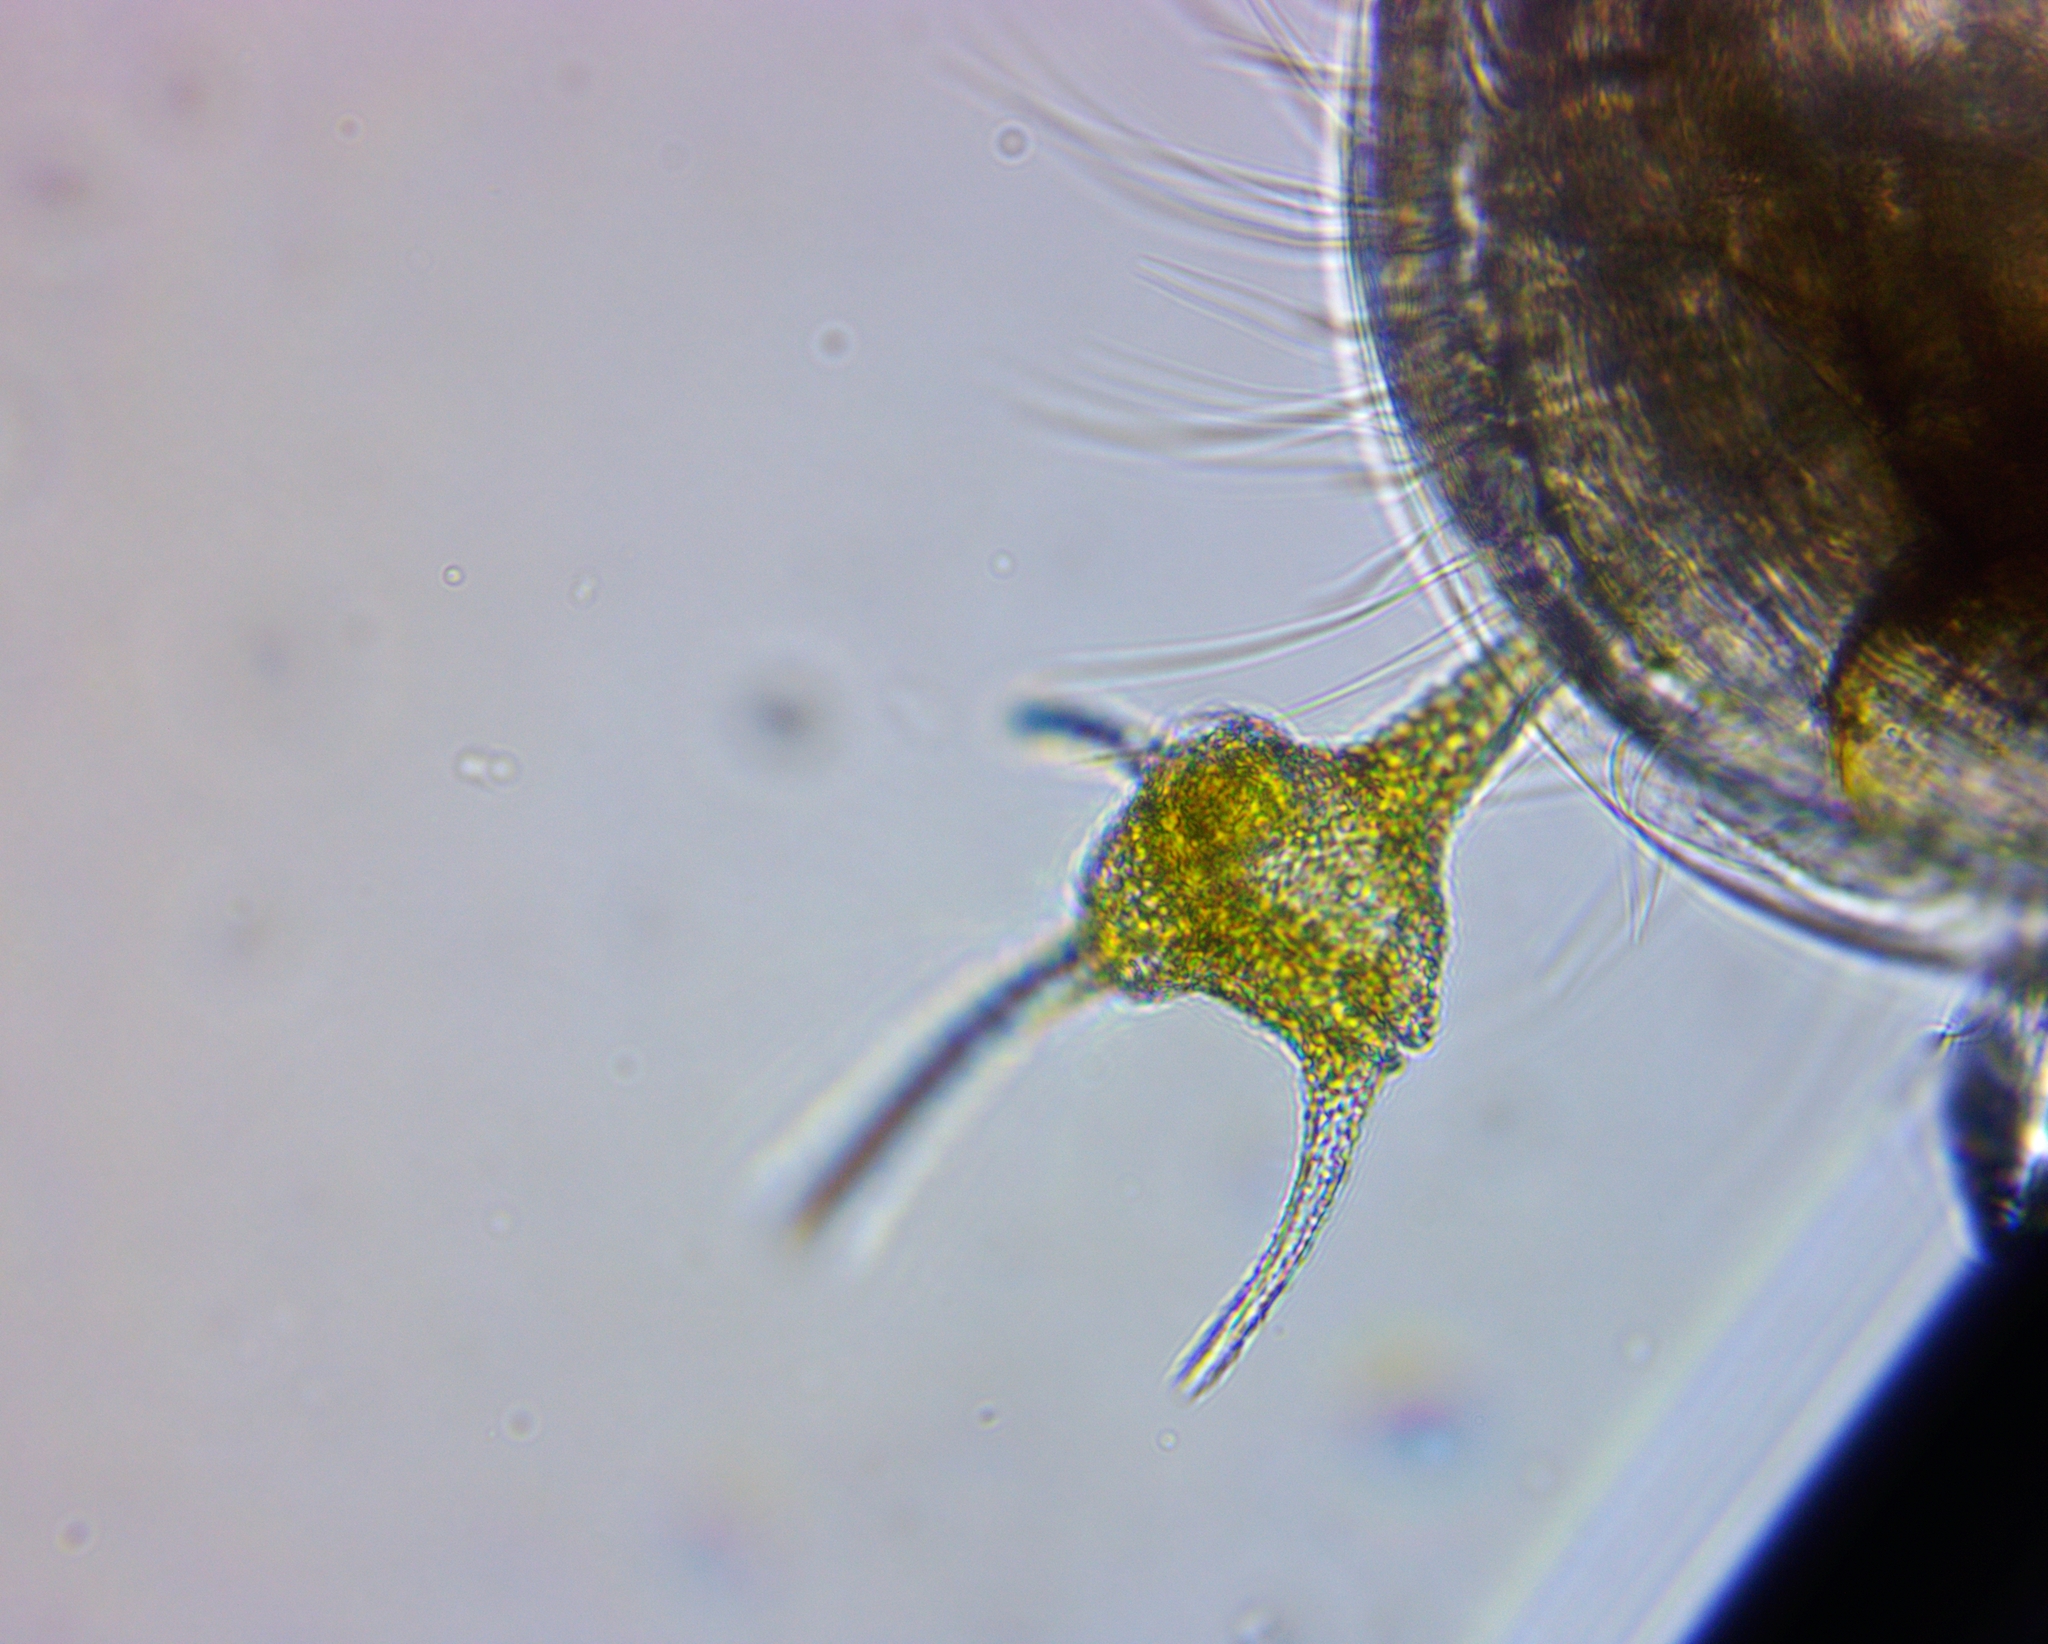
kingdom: Chromista
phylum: Myzozoa
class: Dinophyceae
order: Gonyaulacales
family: Ceratiaceae
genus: Ceratium
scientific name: Ceratium hirundinella
